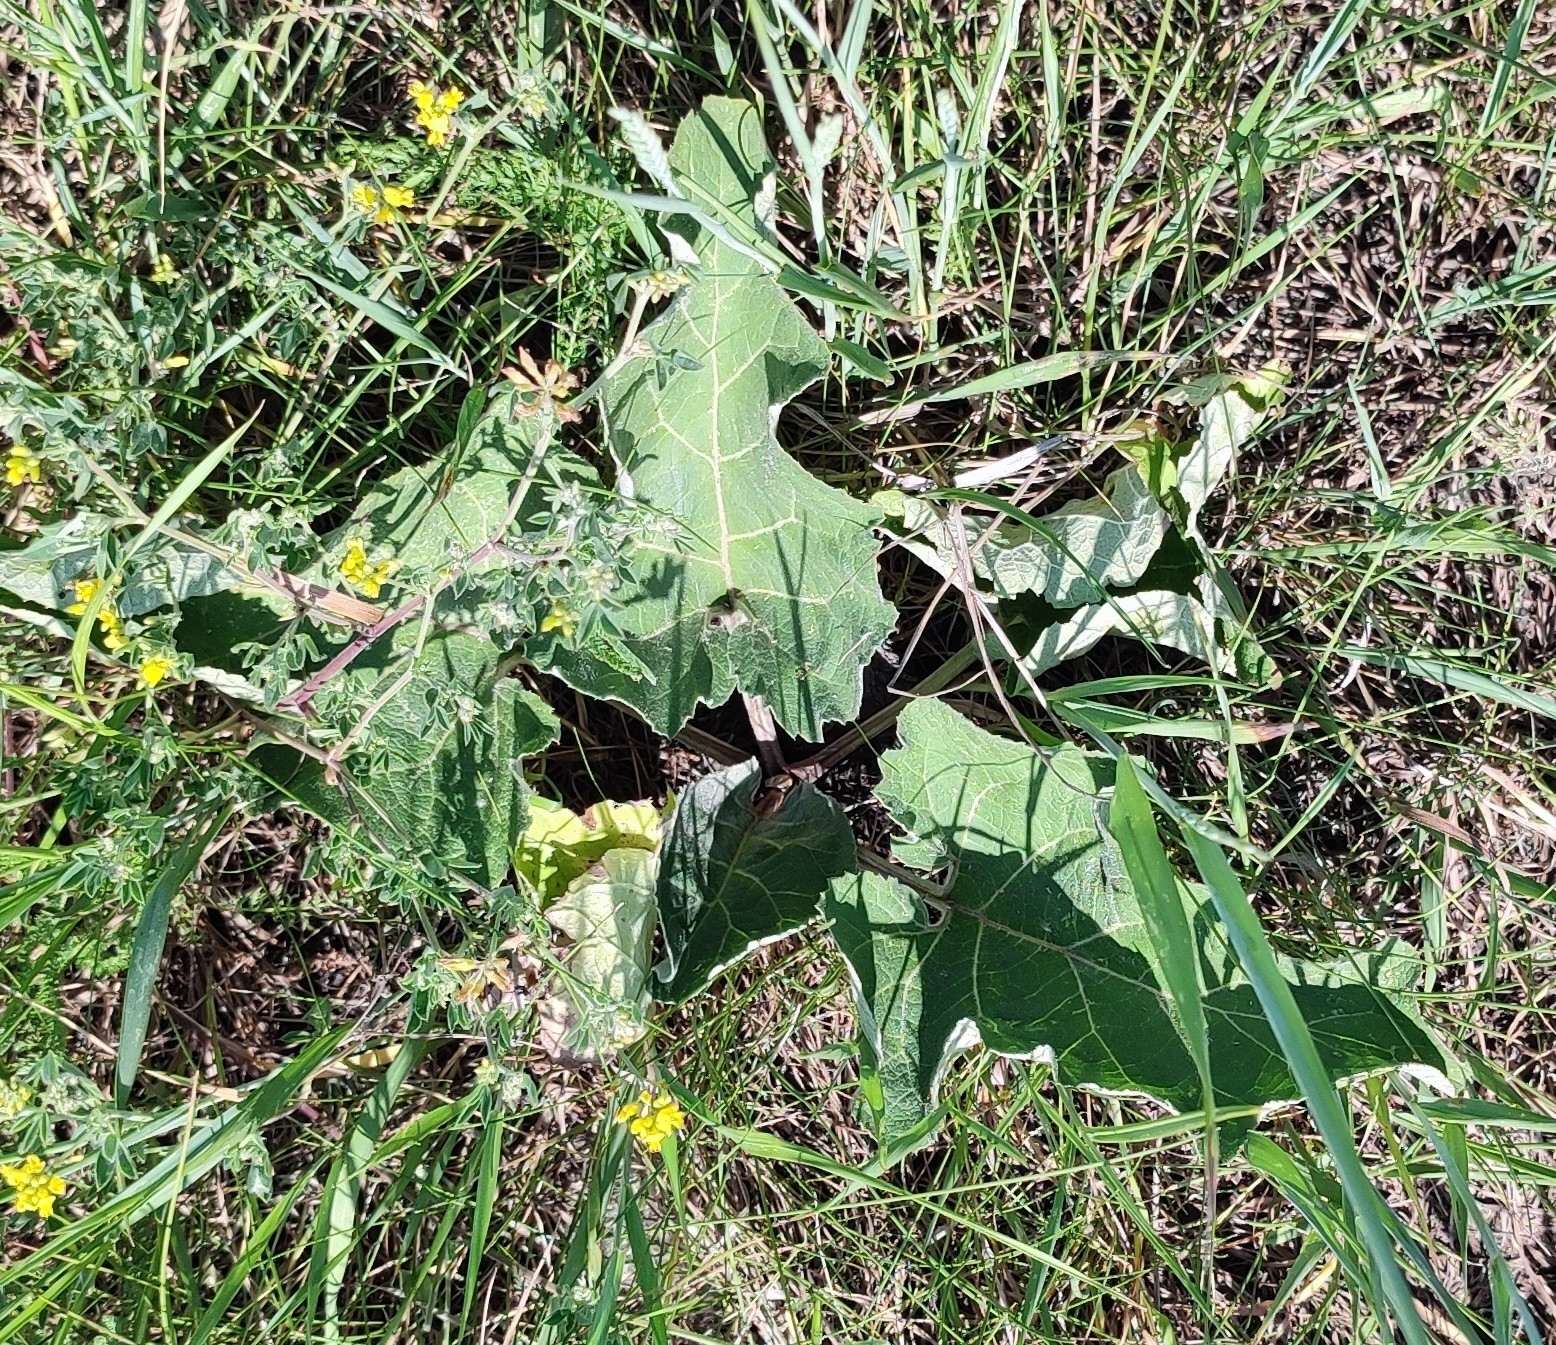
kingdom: Plantae
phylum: Tracheophyta
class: Magnoliopsida
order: Asterales
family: Asteraceae
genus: Arctium
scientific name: Arctium tomentosum
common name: Woolly burdock
